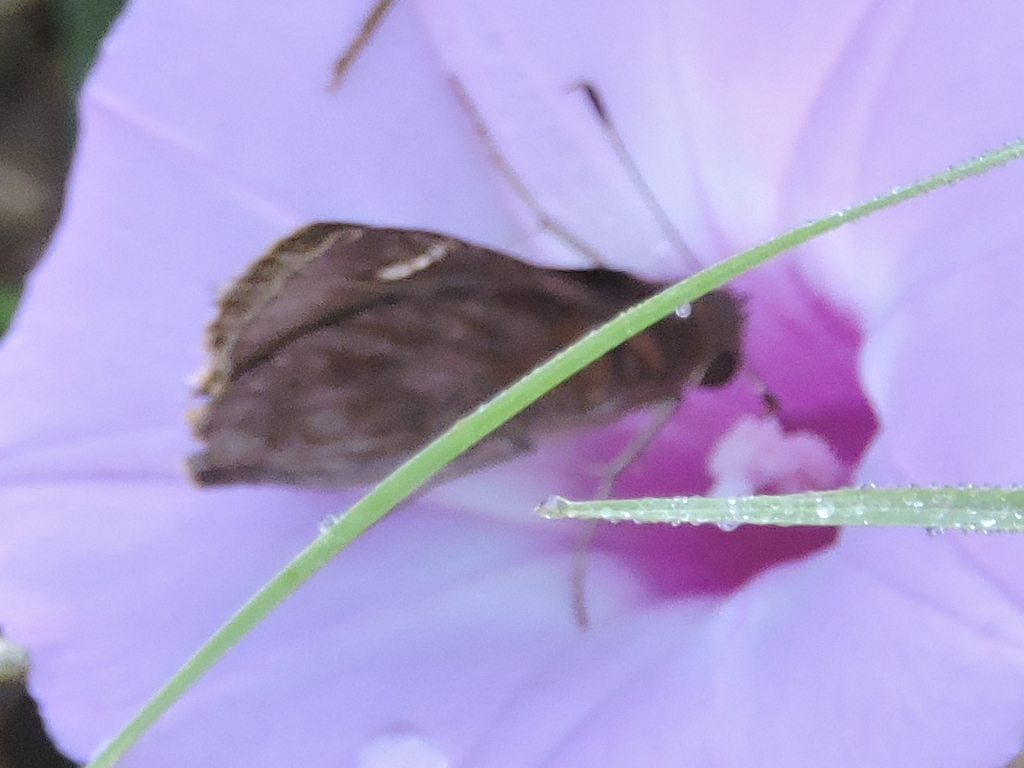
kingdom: Animalia
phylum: Arthropoda
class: Insecta
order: Lepidoptera
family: Hesperiidae
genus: Lerema
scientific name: Lerema accius
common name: Clouded skipper
